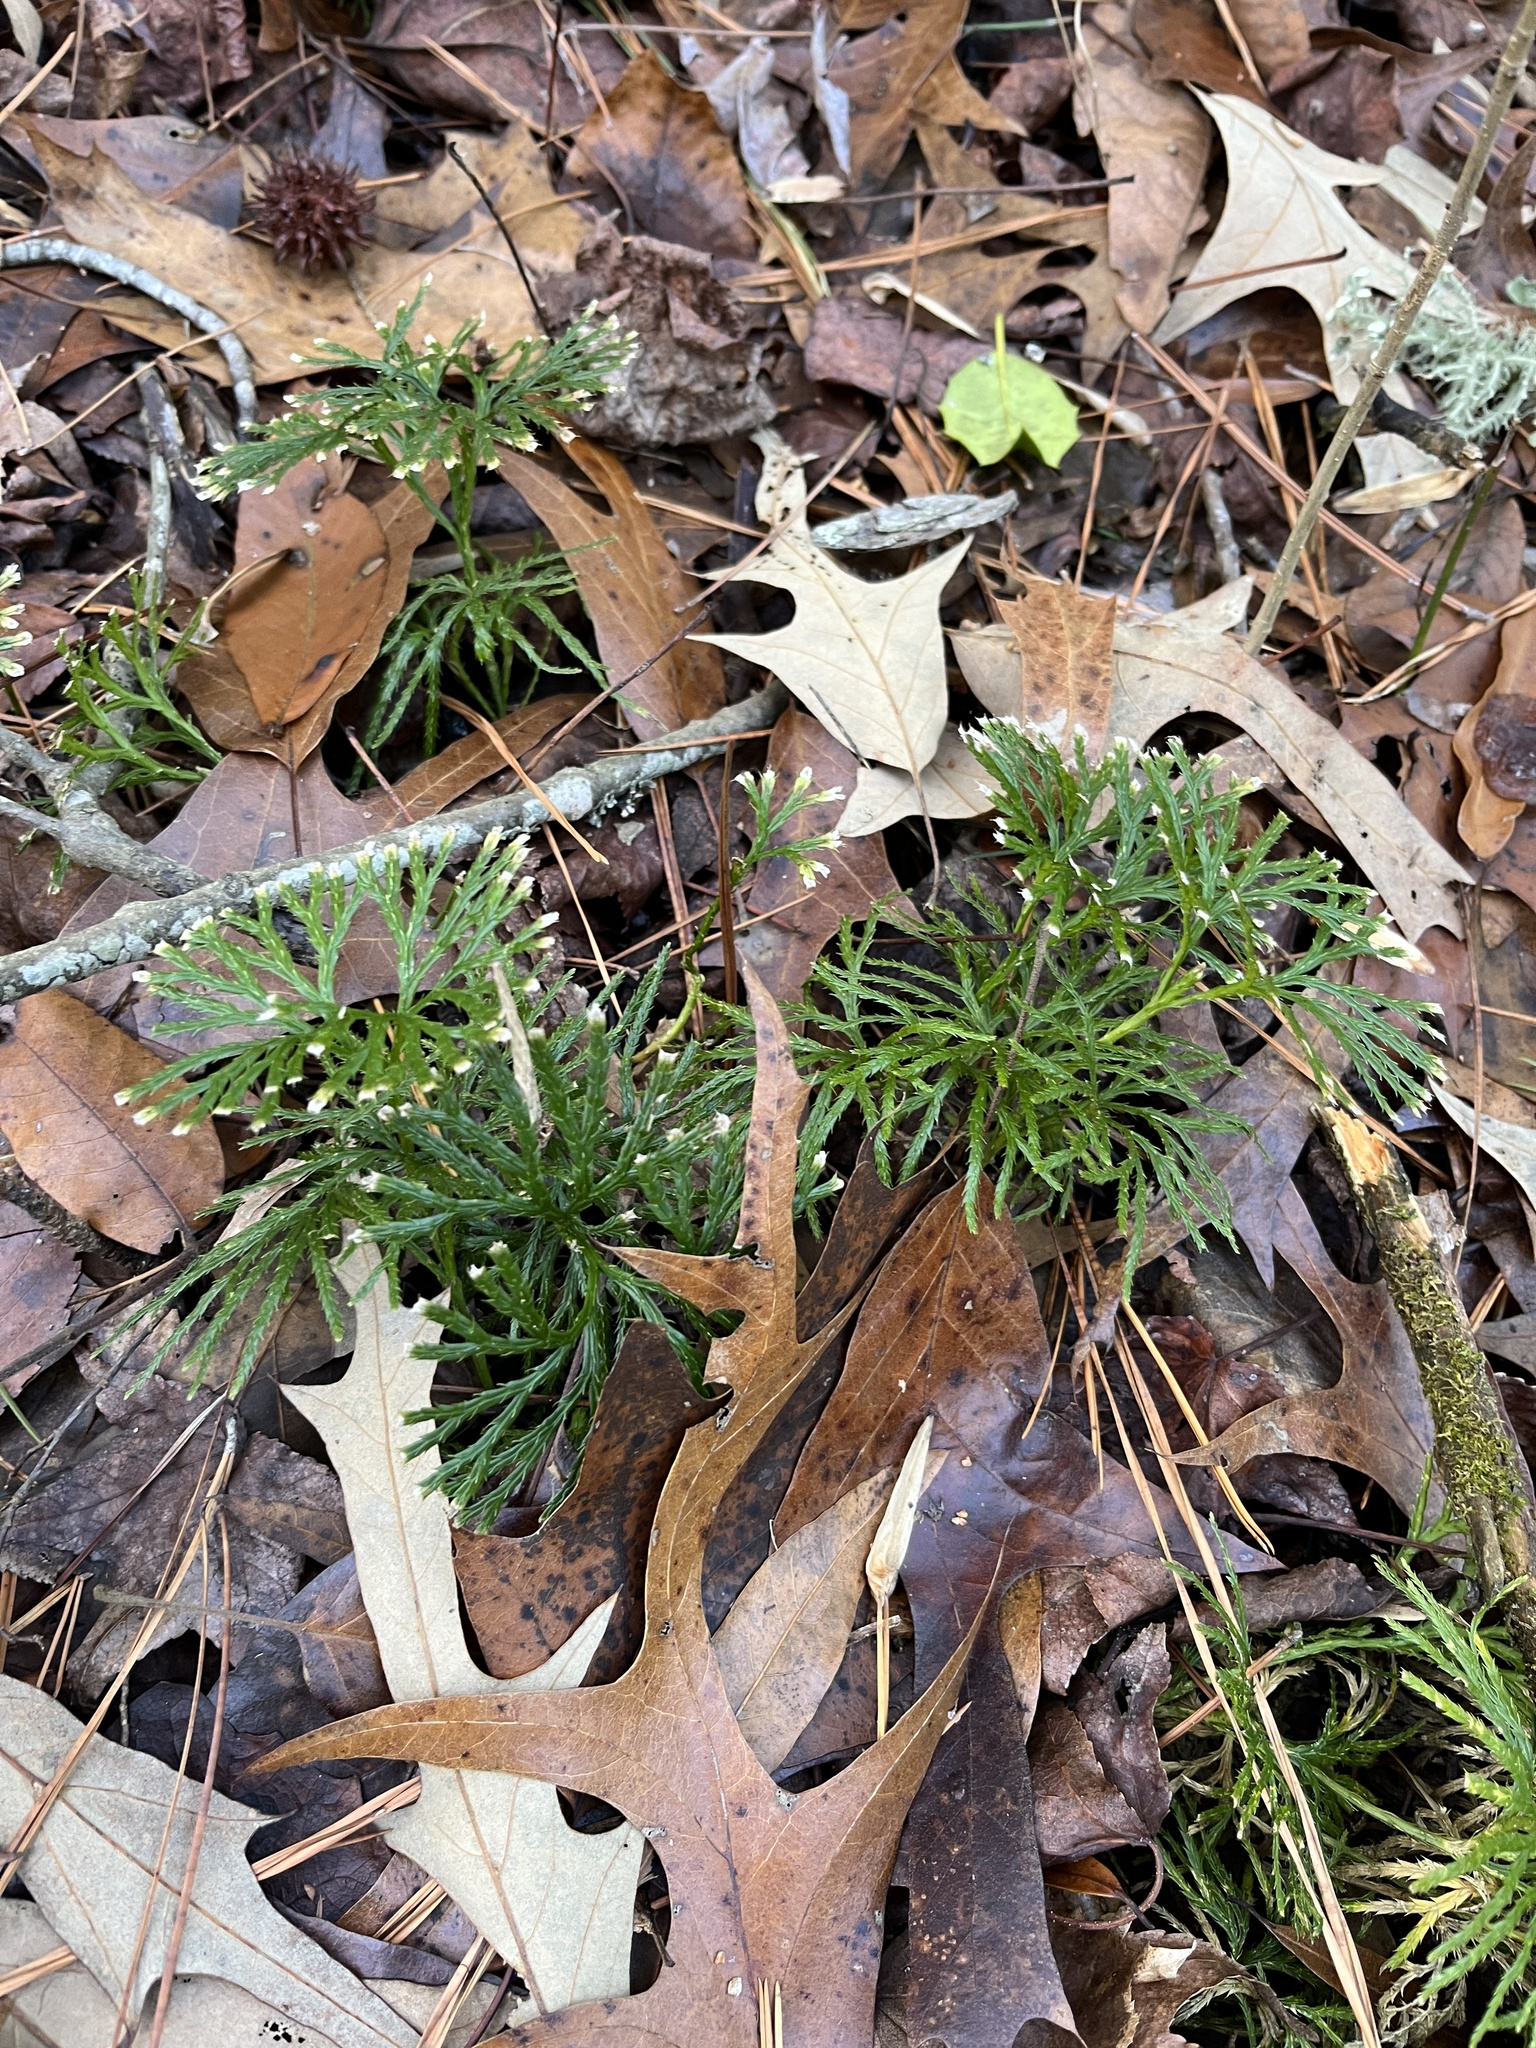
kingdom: Plantae
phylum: Tracheophyta
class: Lycopodiopsida
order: Lycopodiales
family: Lycopodiaceae
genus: Diphasiastrum
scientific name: Diphasiastrum digitatum
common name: Southern running-pine
